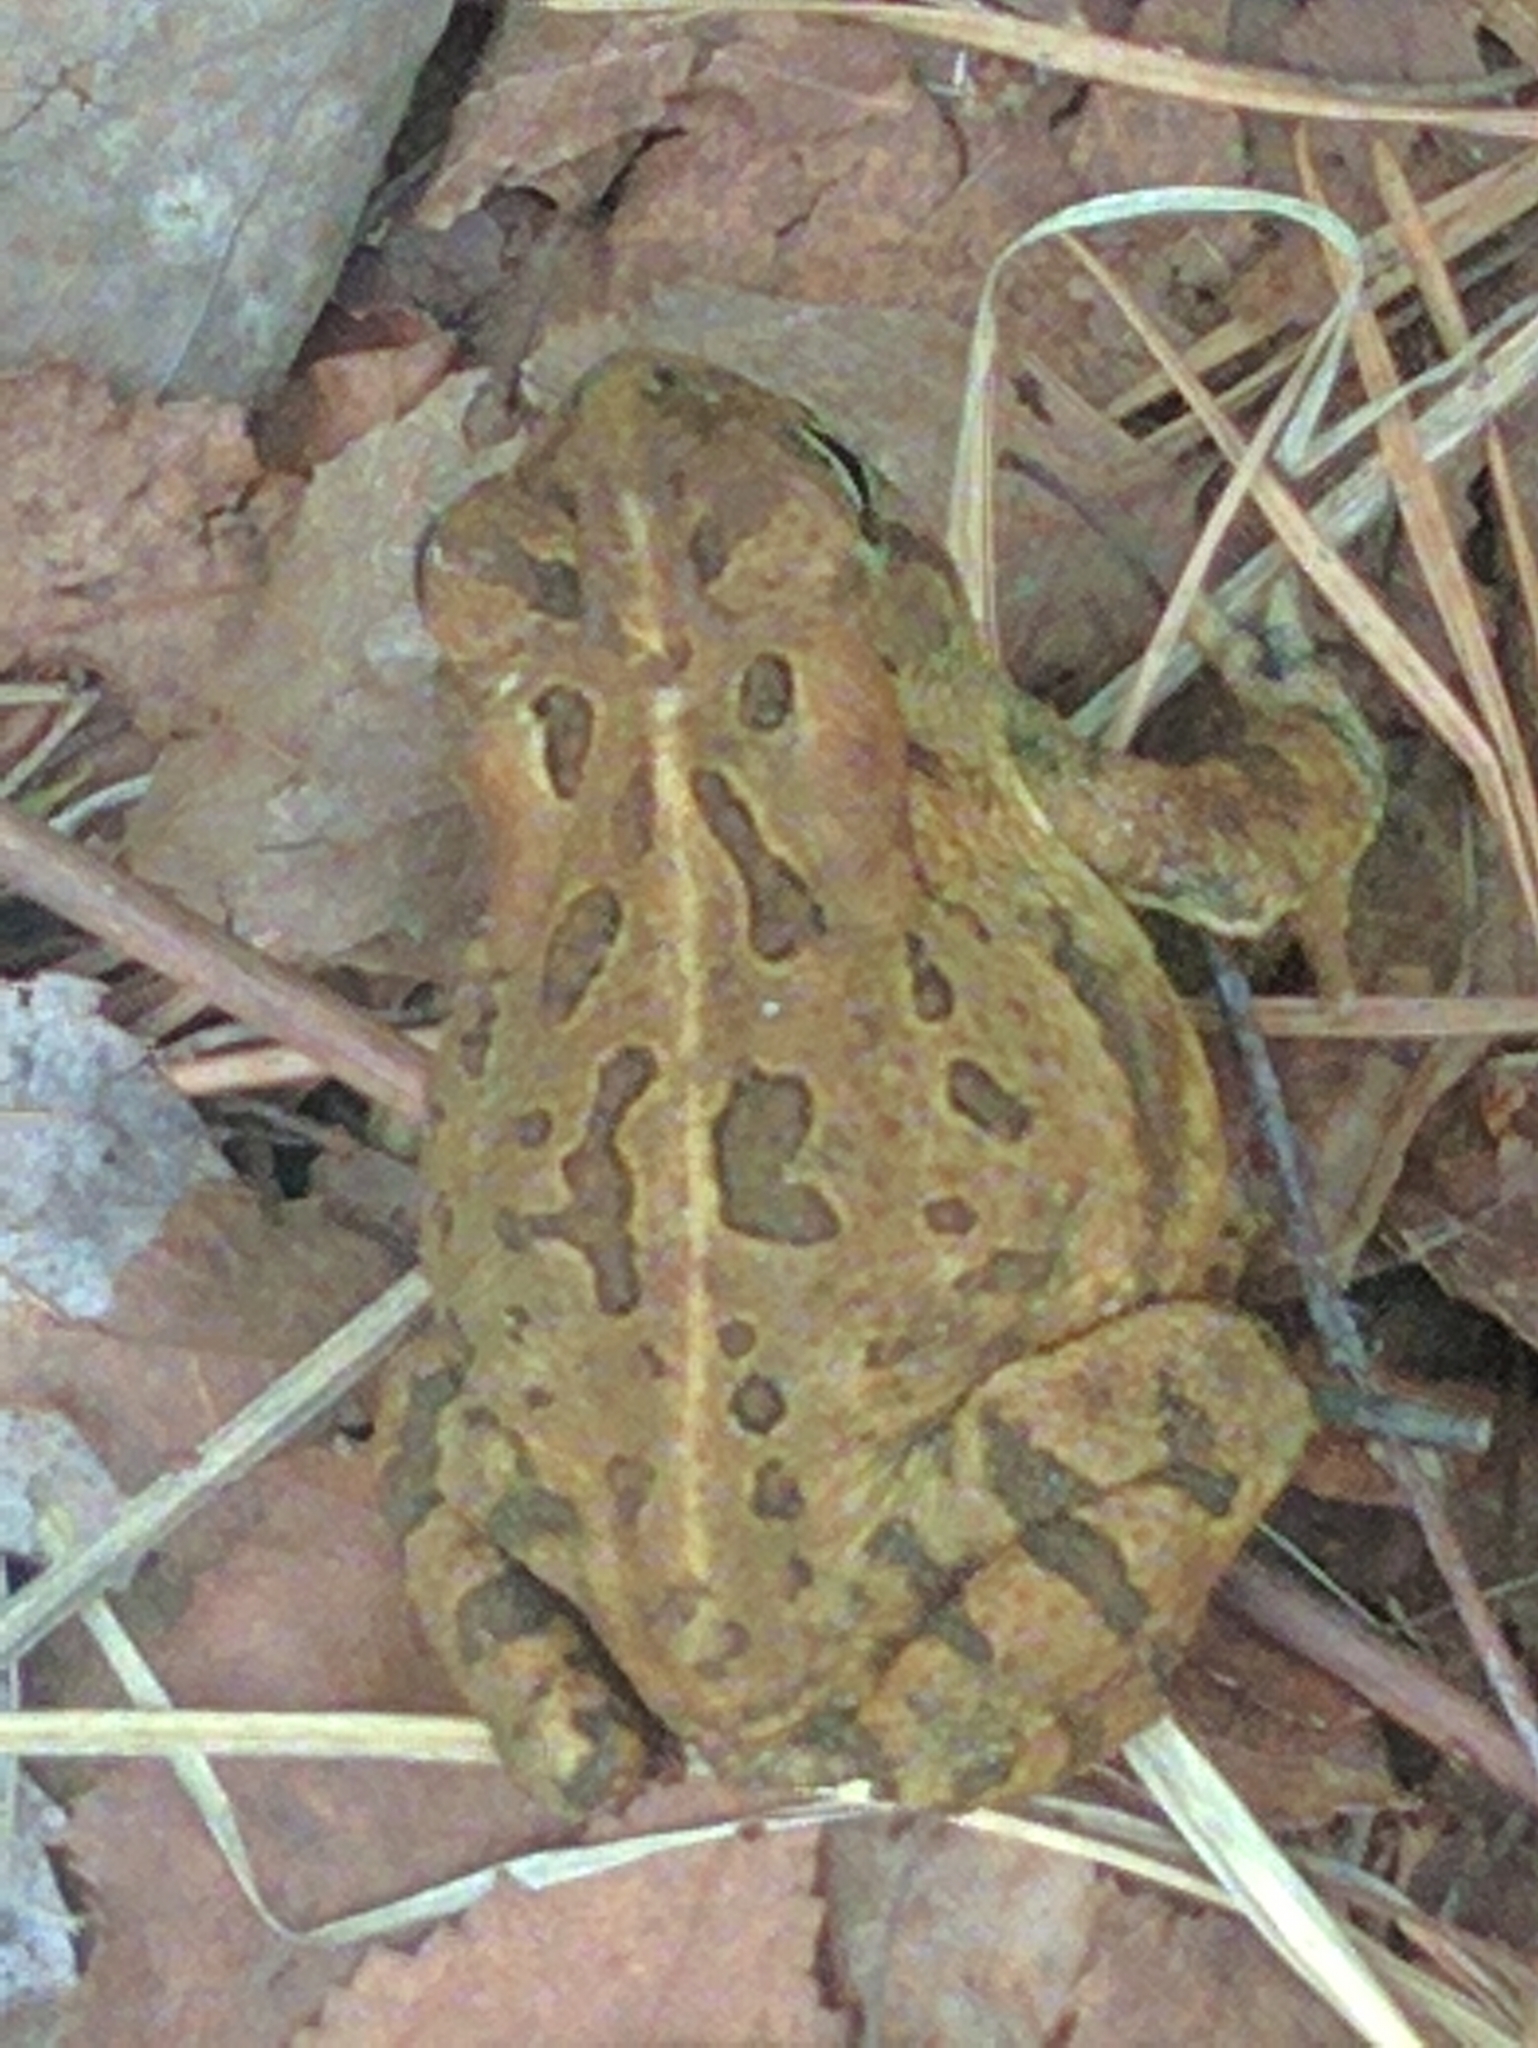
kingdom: Animalia
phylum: Chordata
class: Amphibia
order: Anura
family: Bufonidae
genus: Anaxyrus
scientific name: Anaxyrus fowleri
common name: Fowler's toad
